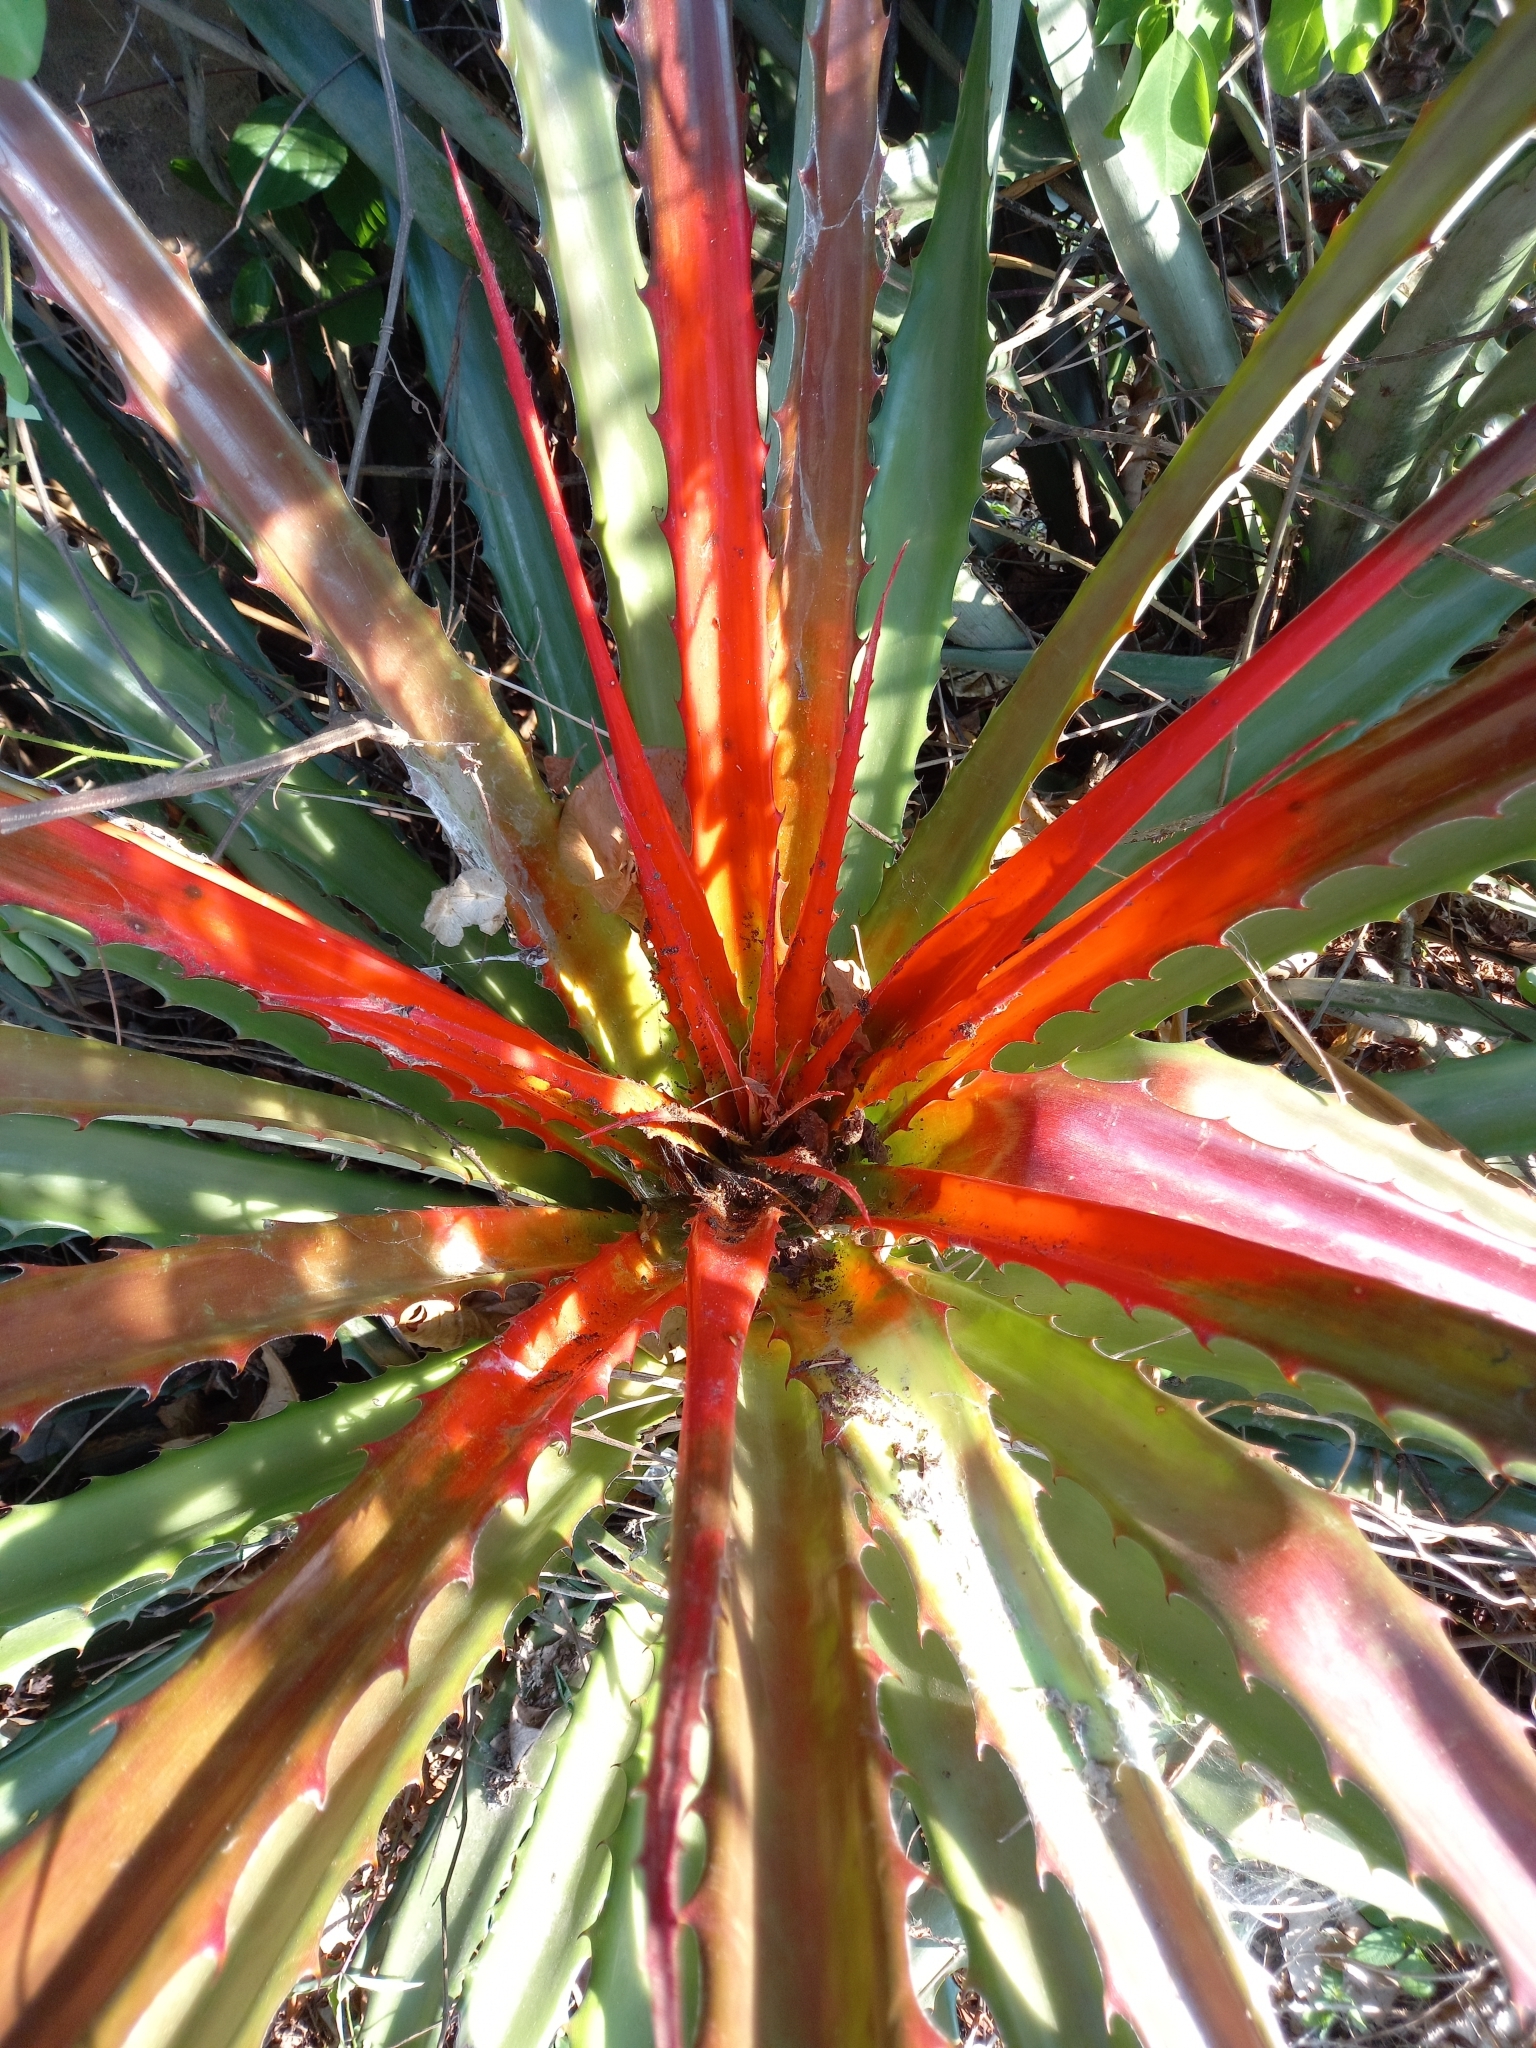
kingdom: Plantae
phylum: Tracheophyta
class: Liliopsida
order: Poales
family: Bromeliaceae
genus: Bromelia
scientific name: Bromelia pinguin
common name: Pinguin
